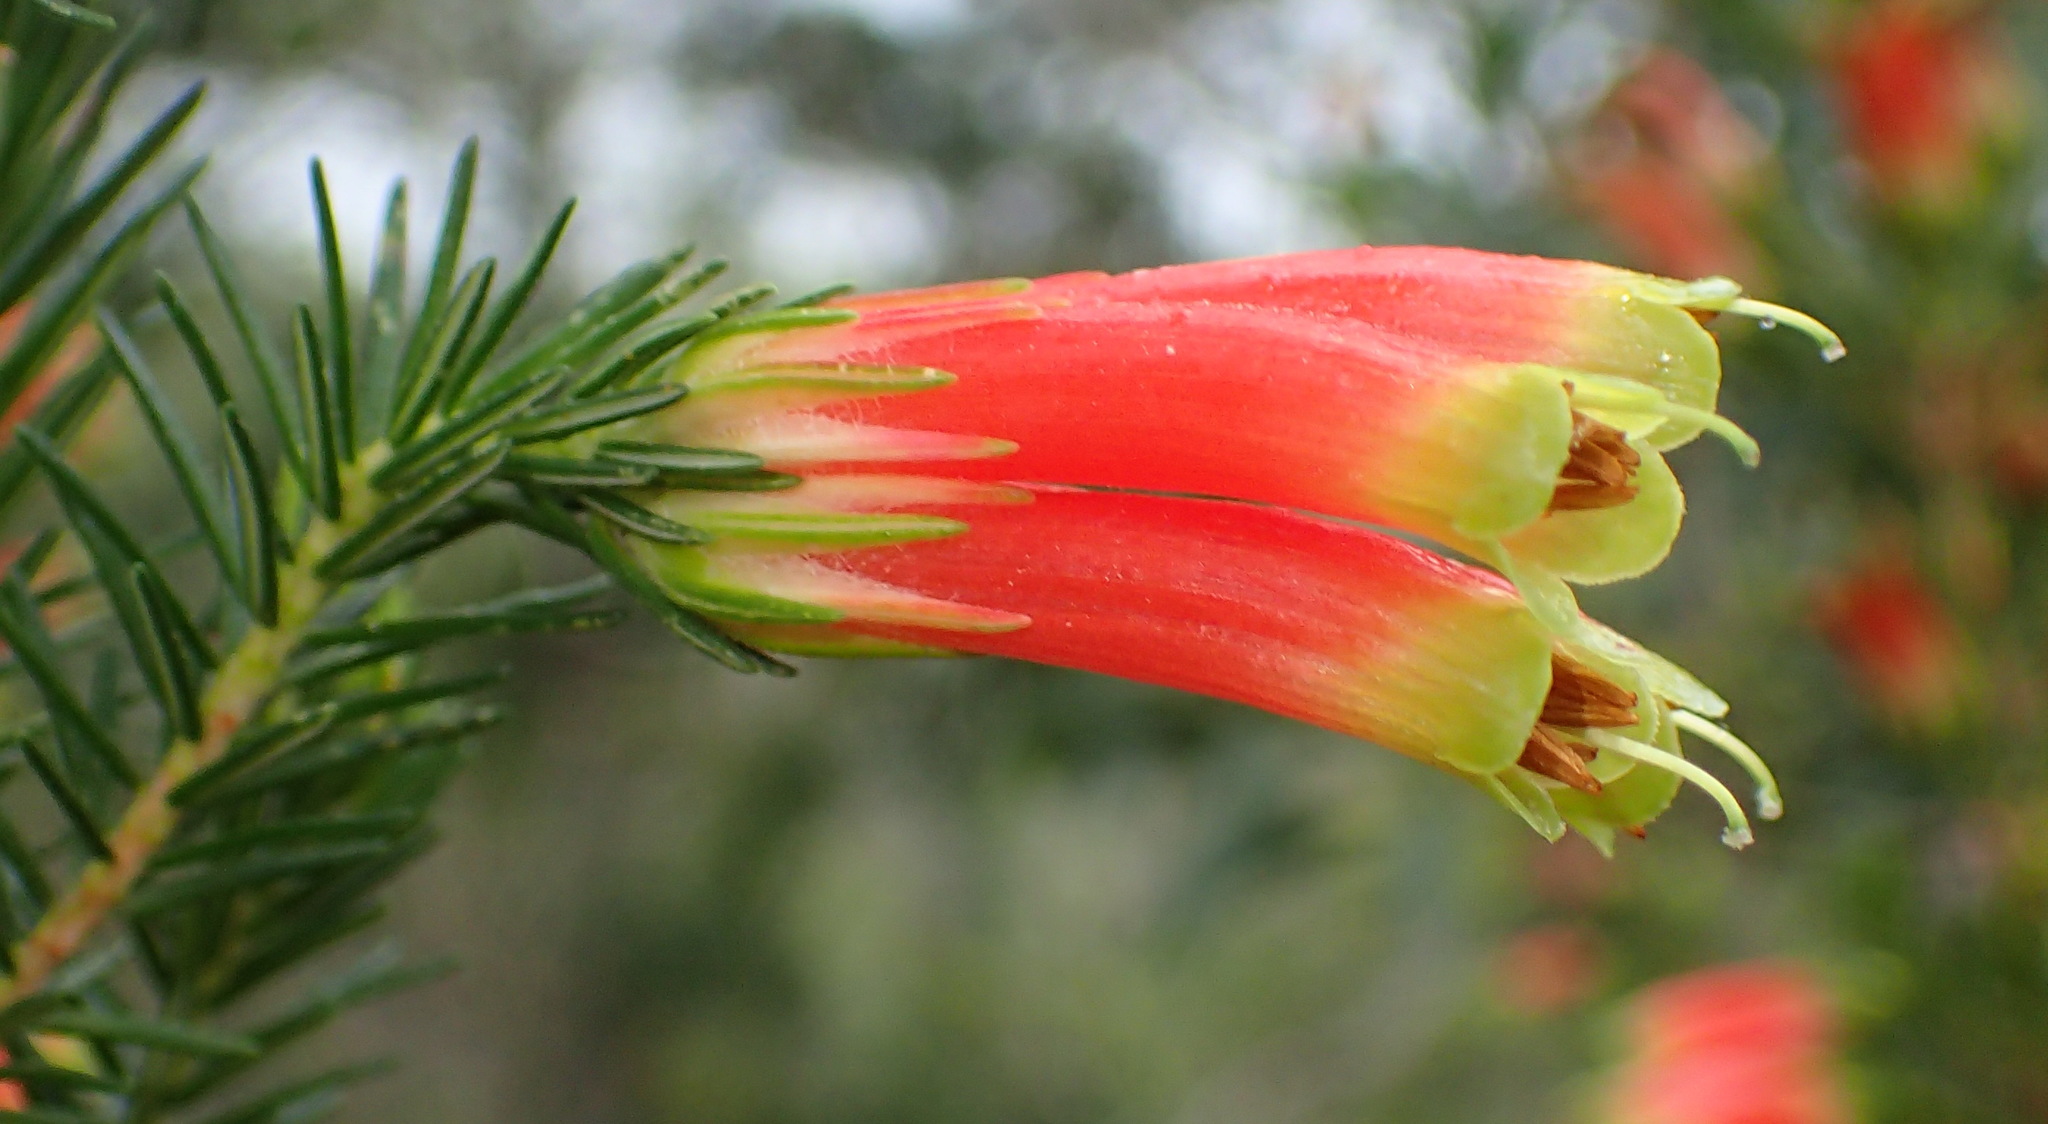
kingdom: Plantae
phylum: Tracheophyta
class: Magnoliopsida
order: Ericales
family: Ericaceae
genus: Erica
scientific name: Erica unicolor
